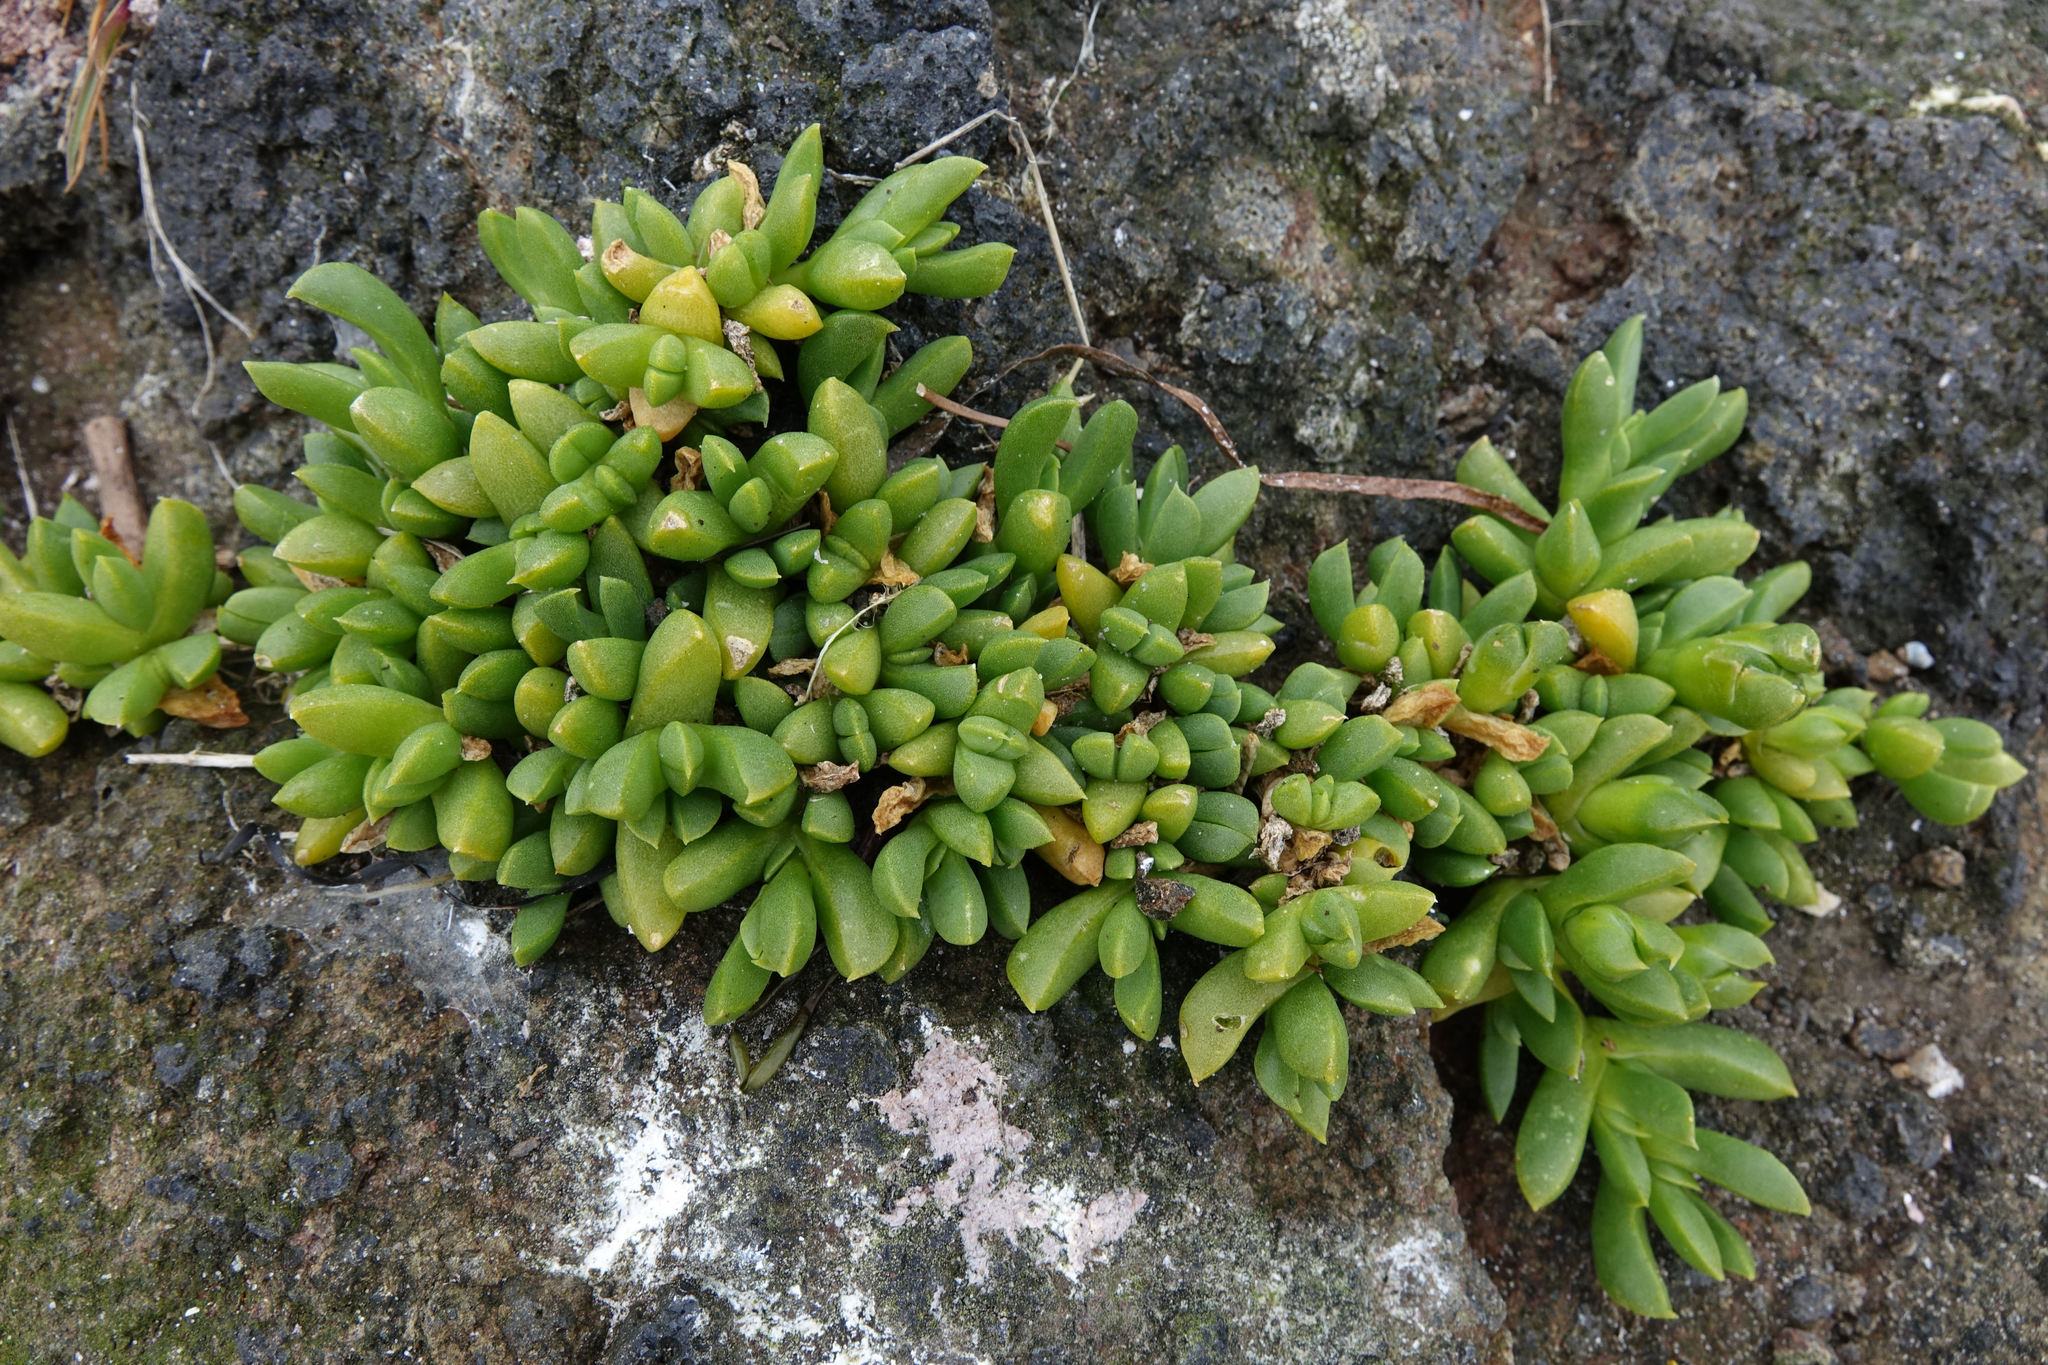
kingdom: Plantae
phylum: Tracheophyta
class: Magnoliopsida
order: Caryophyllales
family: Aizoaceae
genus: Disphyma
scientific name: Disphyma australe
